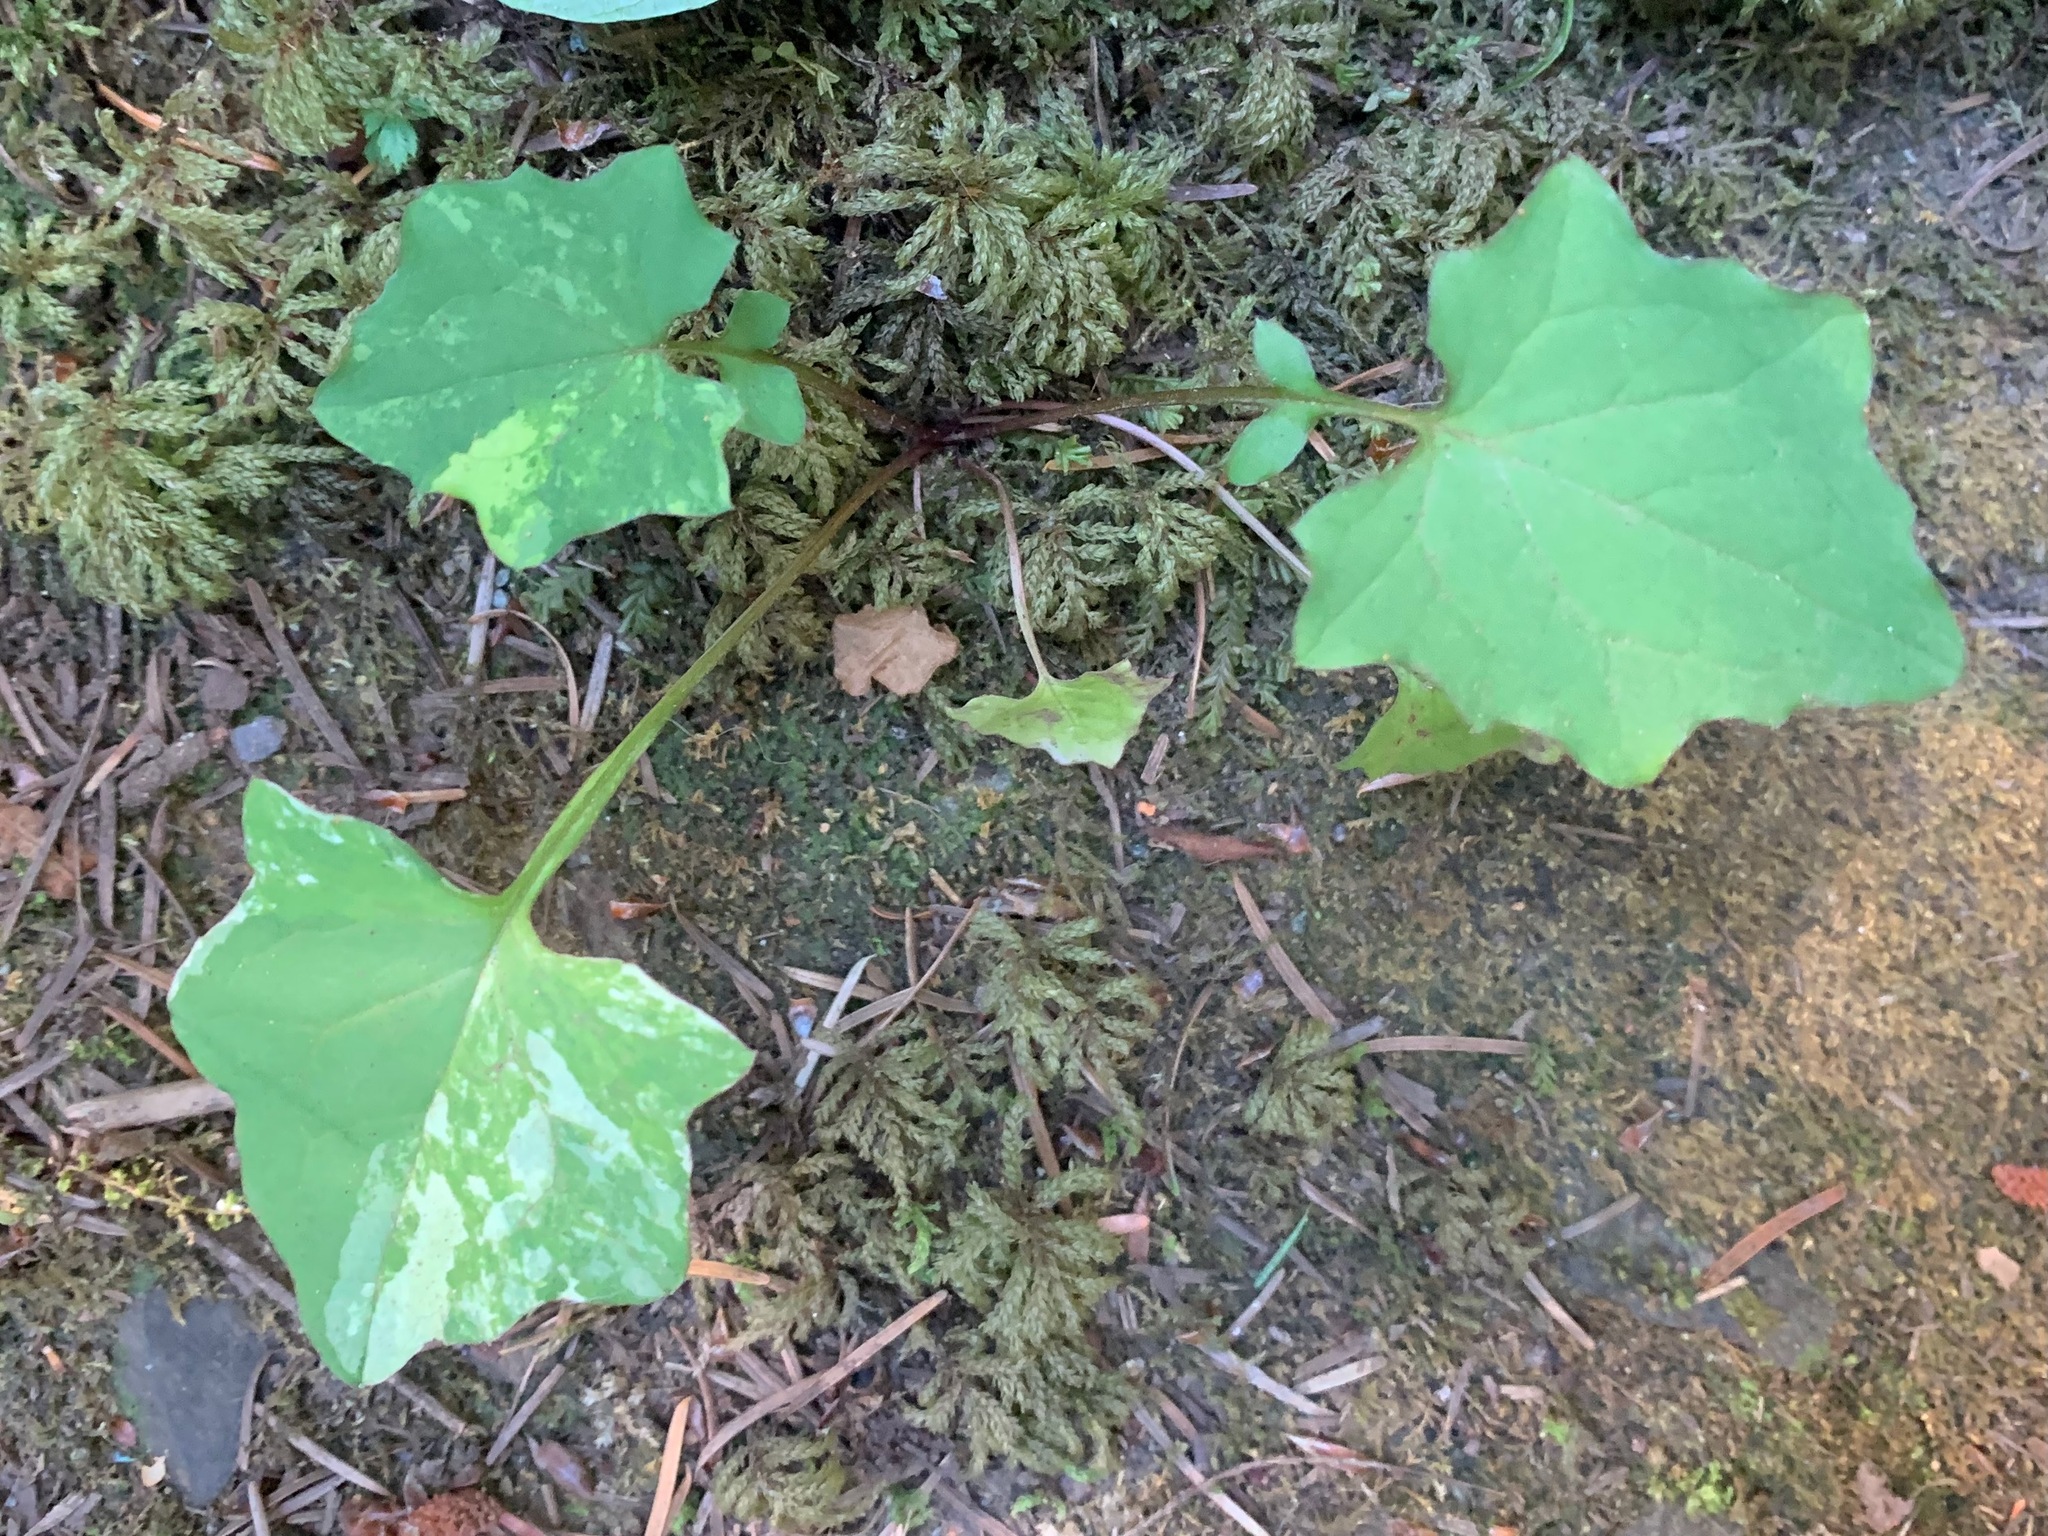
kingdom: Plantae
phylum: Tracheophyta
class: Magnoliopsida
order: Asterales
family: Asteraceae
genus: Mycelis
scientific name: Mycelis muralis
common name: Wall lettuce
